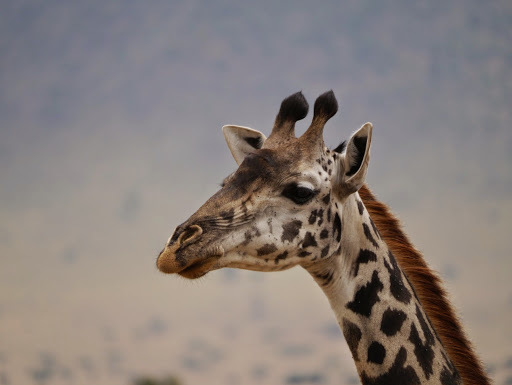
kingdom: Animalia
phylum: Chordata
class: Mammalia
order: Artiodactyla
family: Giraffidae
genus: Giraffa
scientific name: Giraffa tippelskirchi
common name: Masai giraffe
